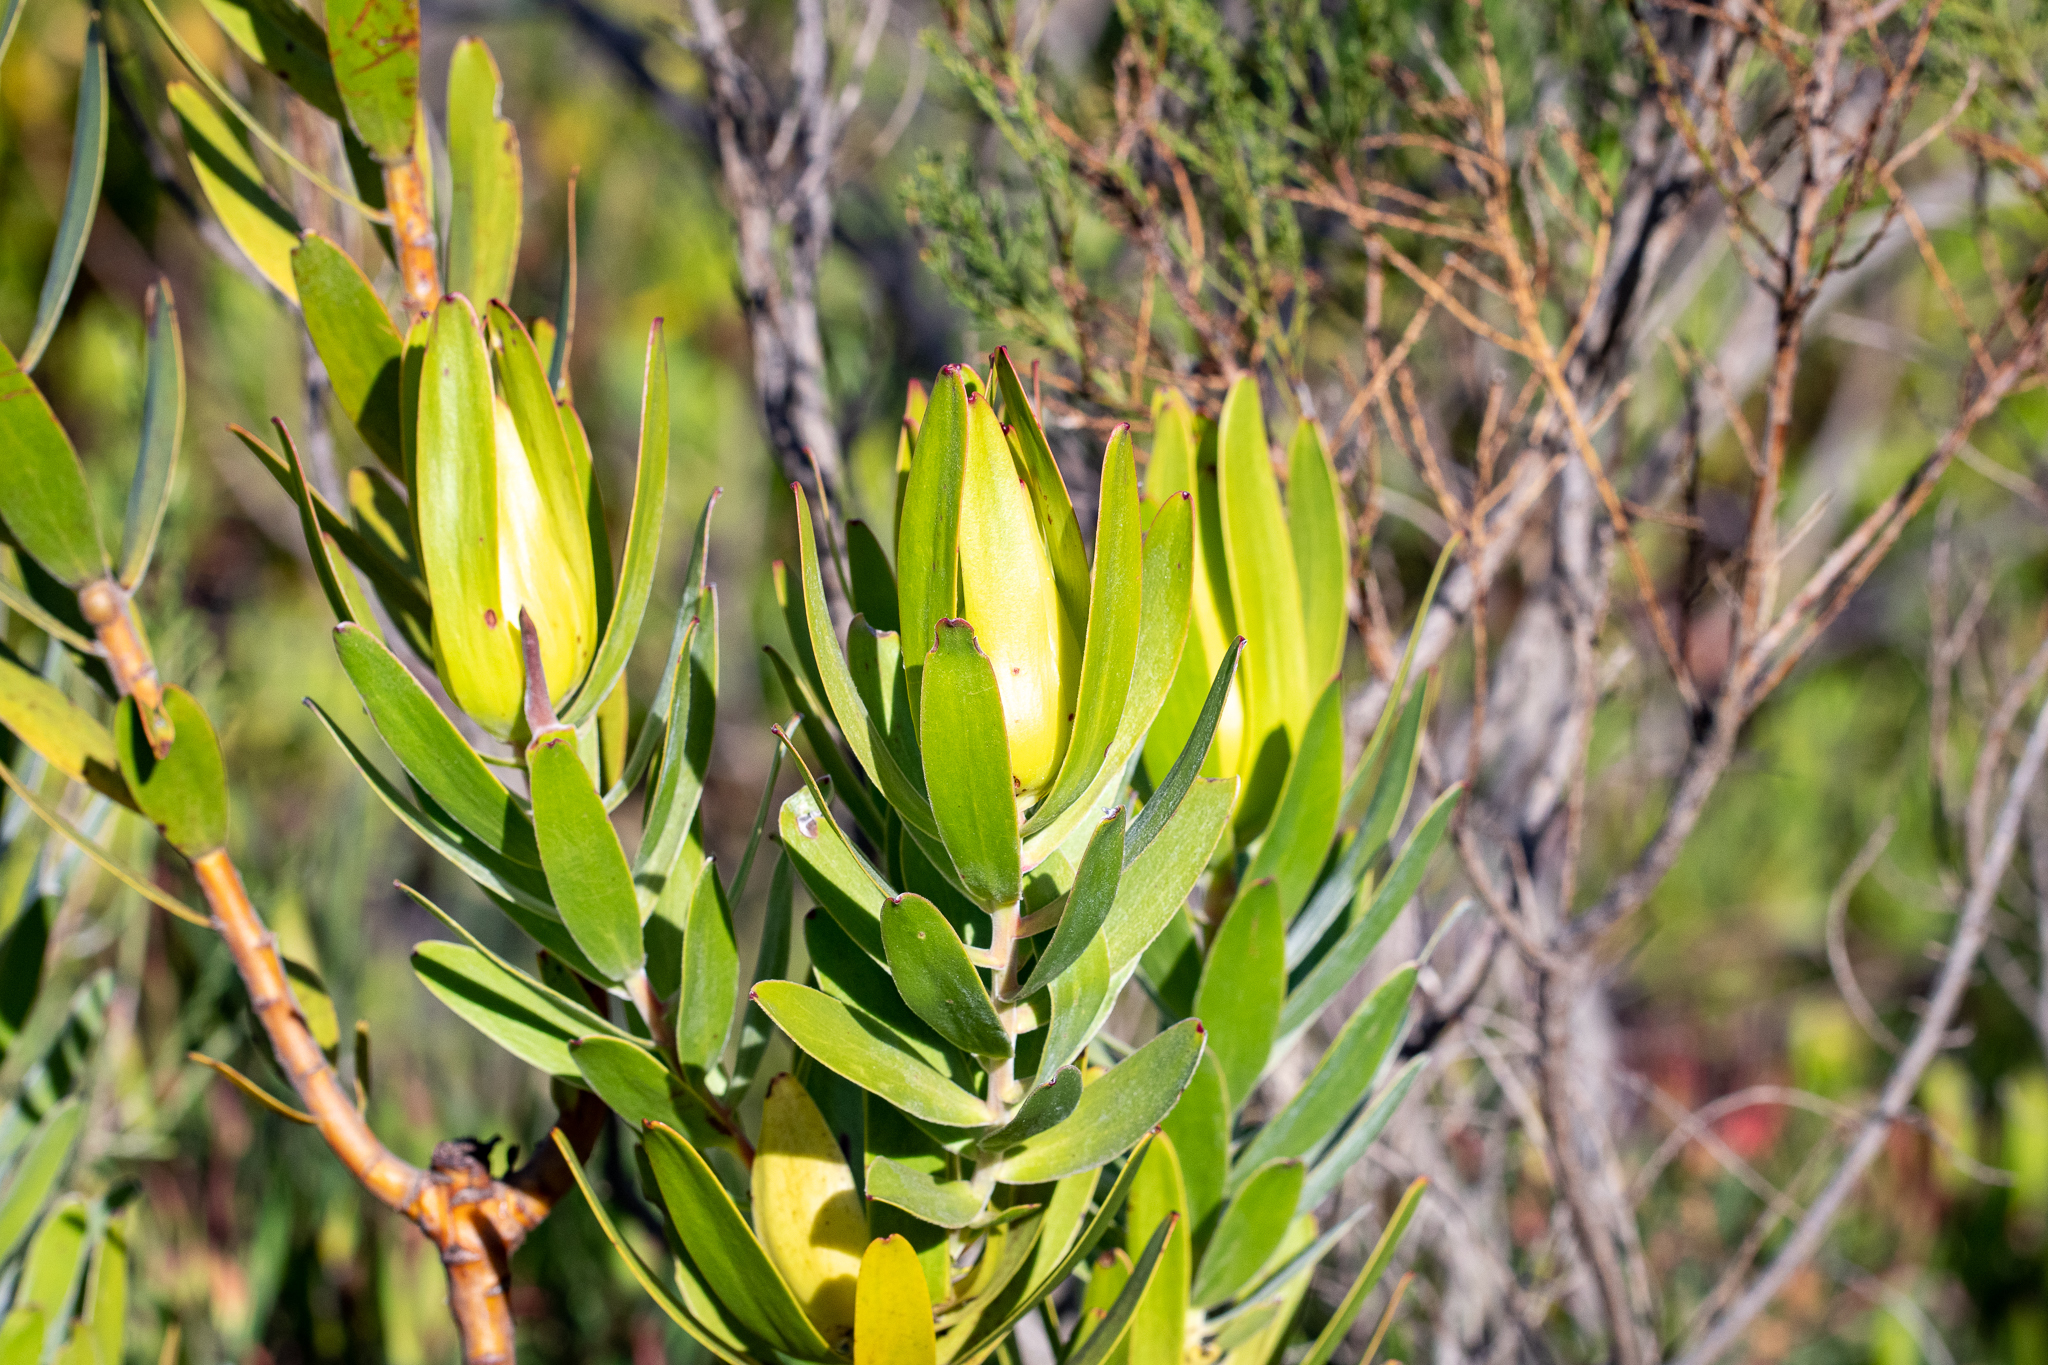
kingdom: Plantae
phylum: Tracheophyta
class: Magnoliopsida
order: Proteales
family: Proteaceae
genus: Leucadendron
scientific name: Leucadendron laureolum
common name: Golden sunshinebush
